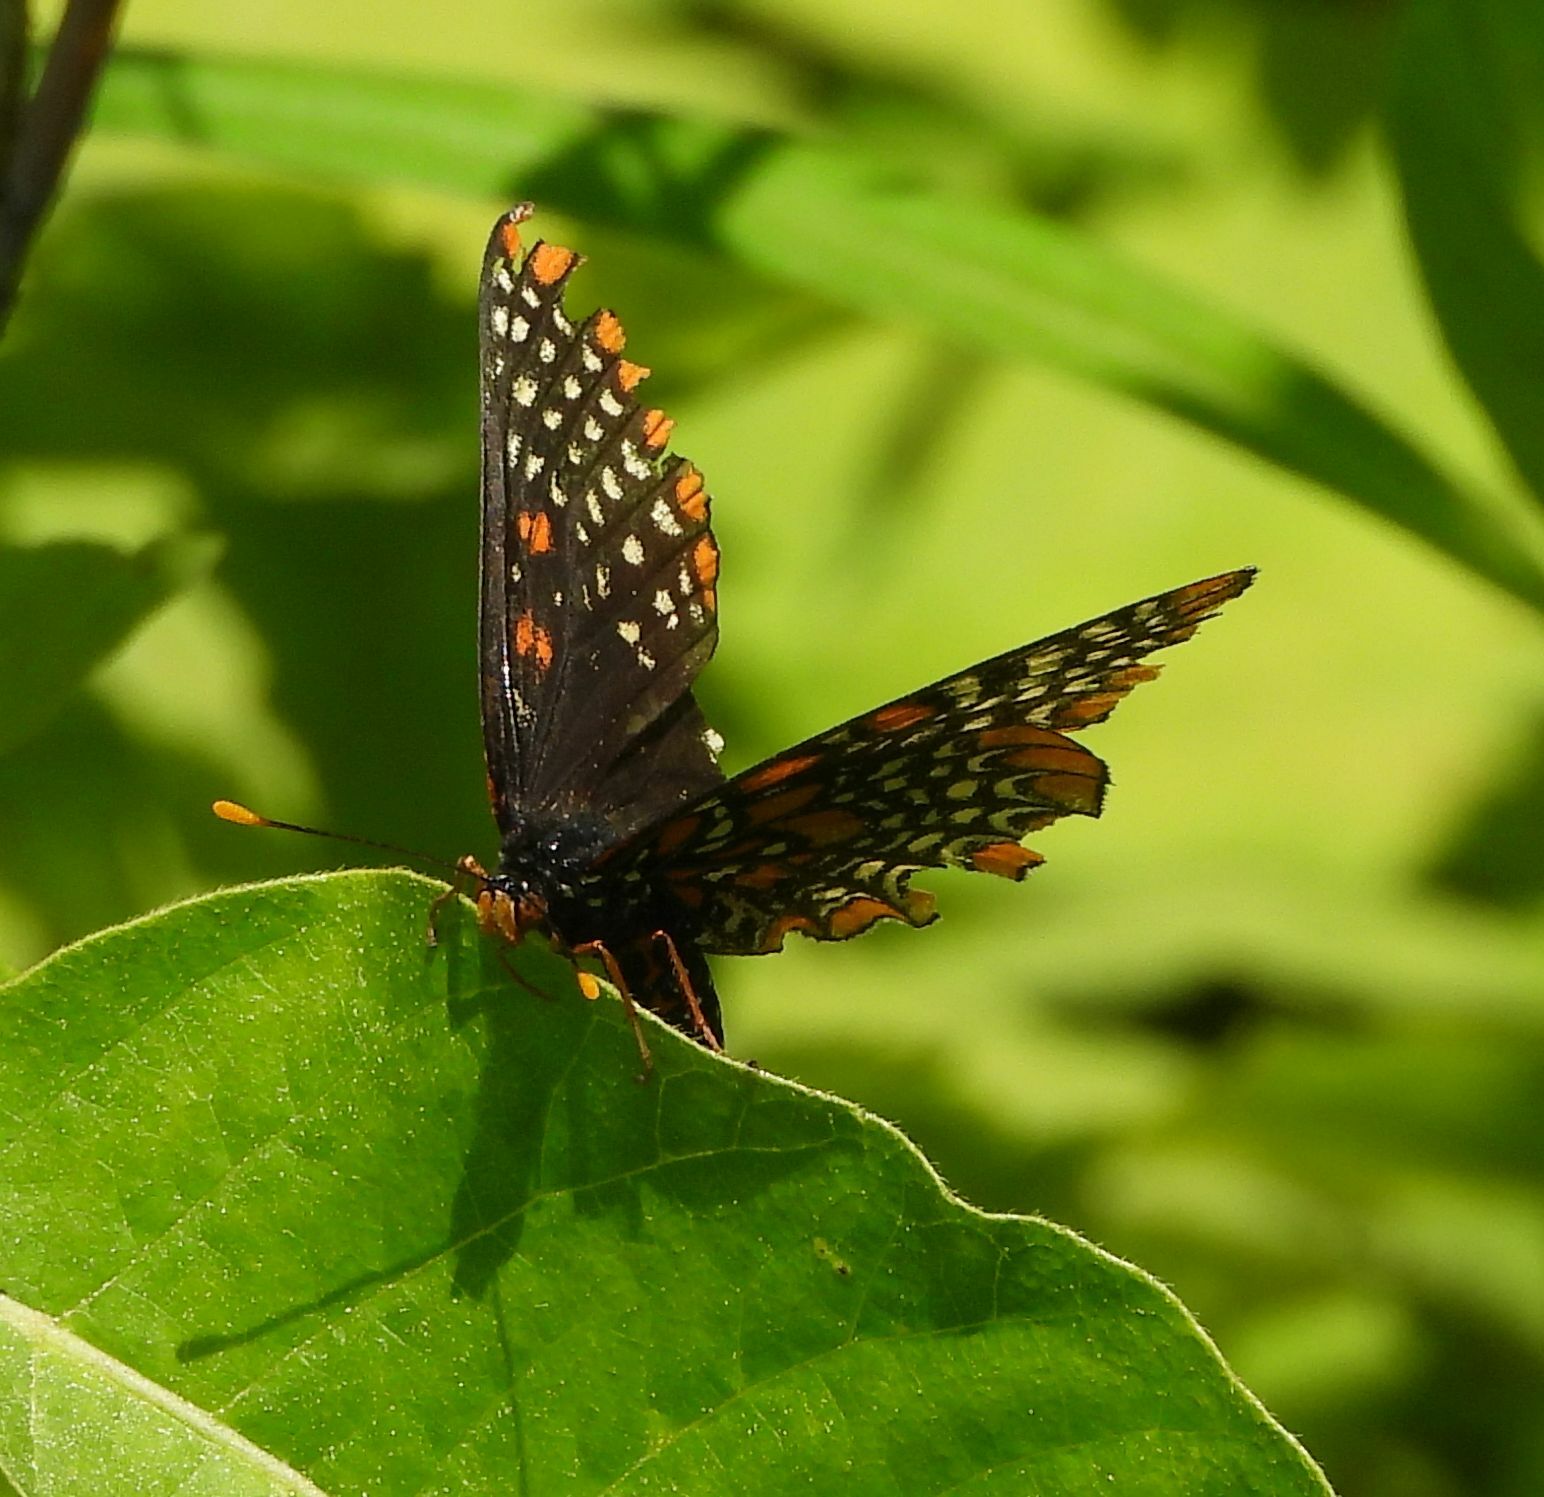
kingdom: Animalia
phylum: Arthropoda
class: Insecta
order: Lepidoptera
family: Nymphalidae
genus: Euphydryas
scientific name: Euphydryas phaeton
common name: Baltimore checkerspot
